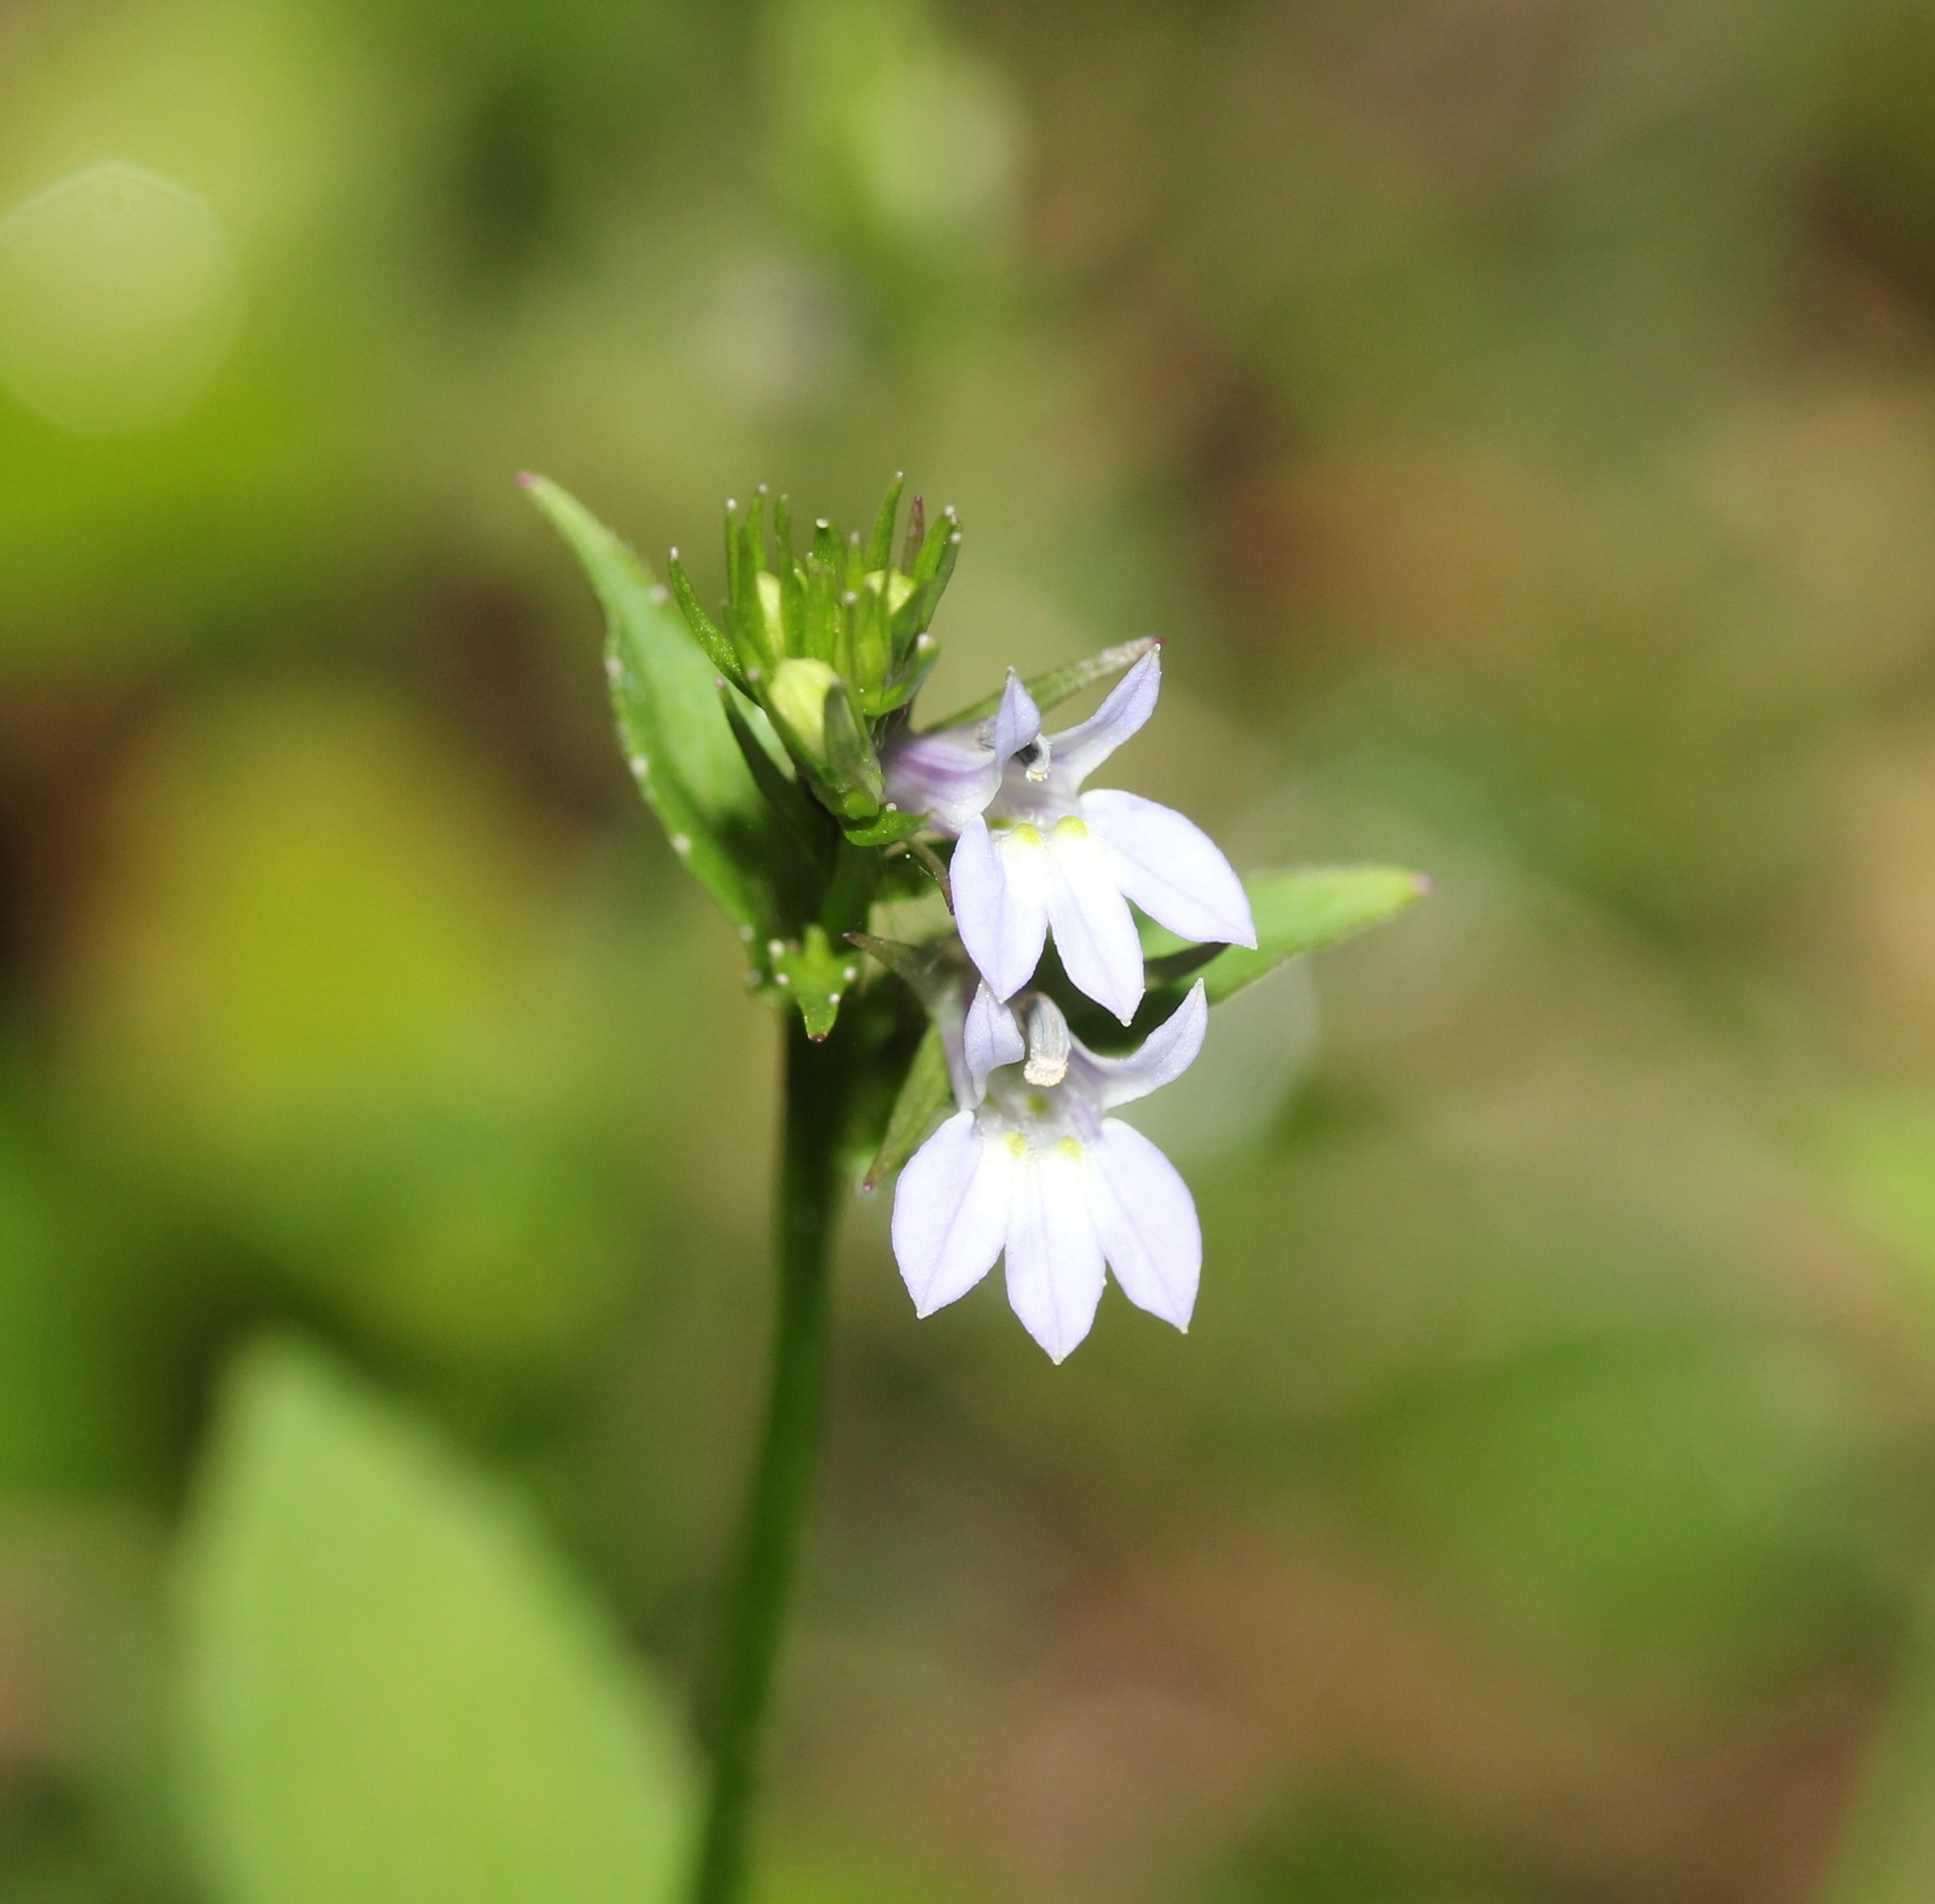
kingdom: Plantae
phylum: Tracheophyta
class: Magnoliopsida
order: Asterales
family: Campanulaceae
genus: Lobelia
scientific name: Lobelia inflata
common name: Indian tobacco
